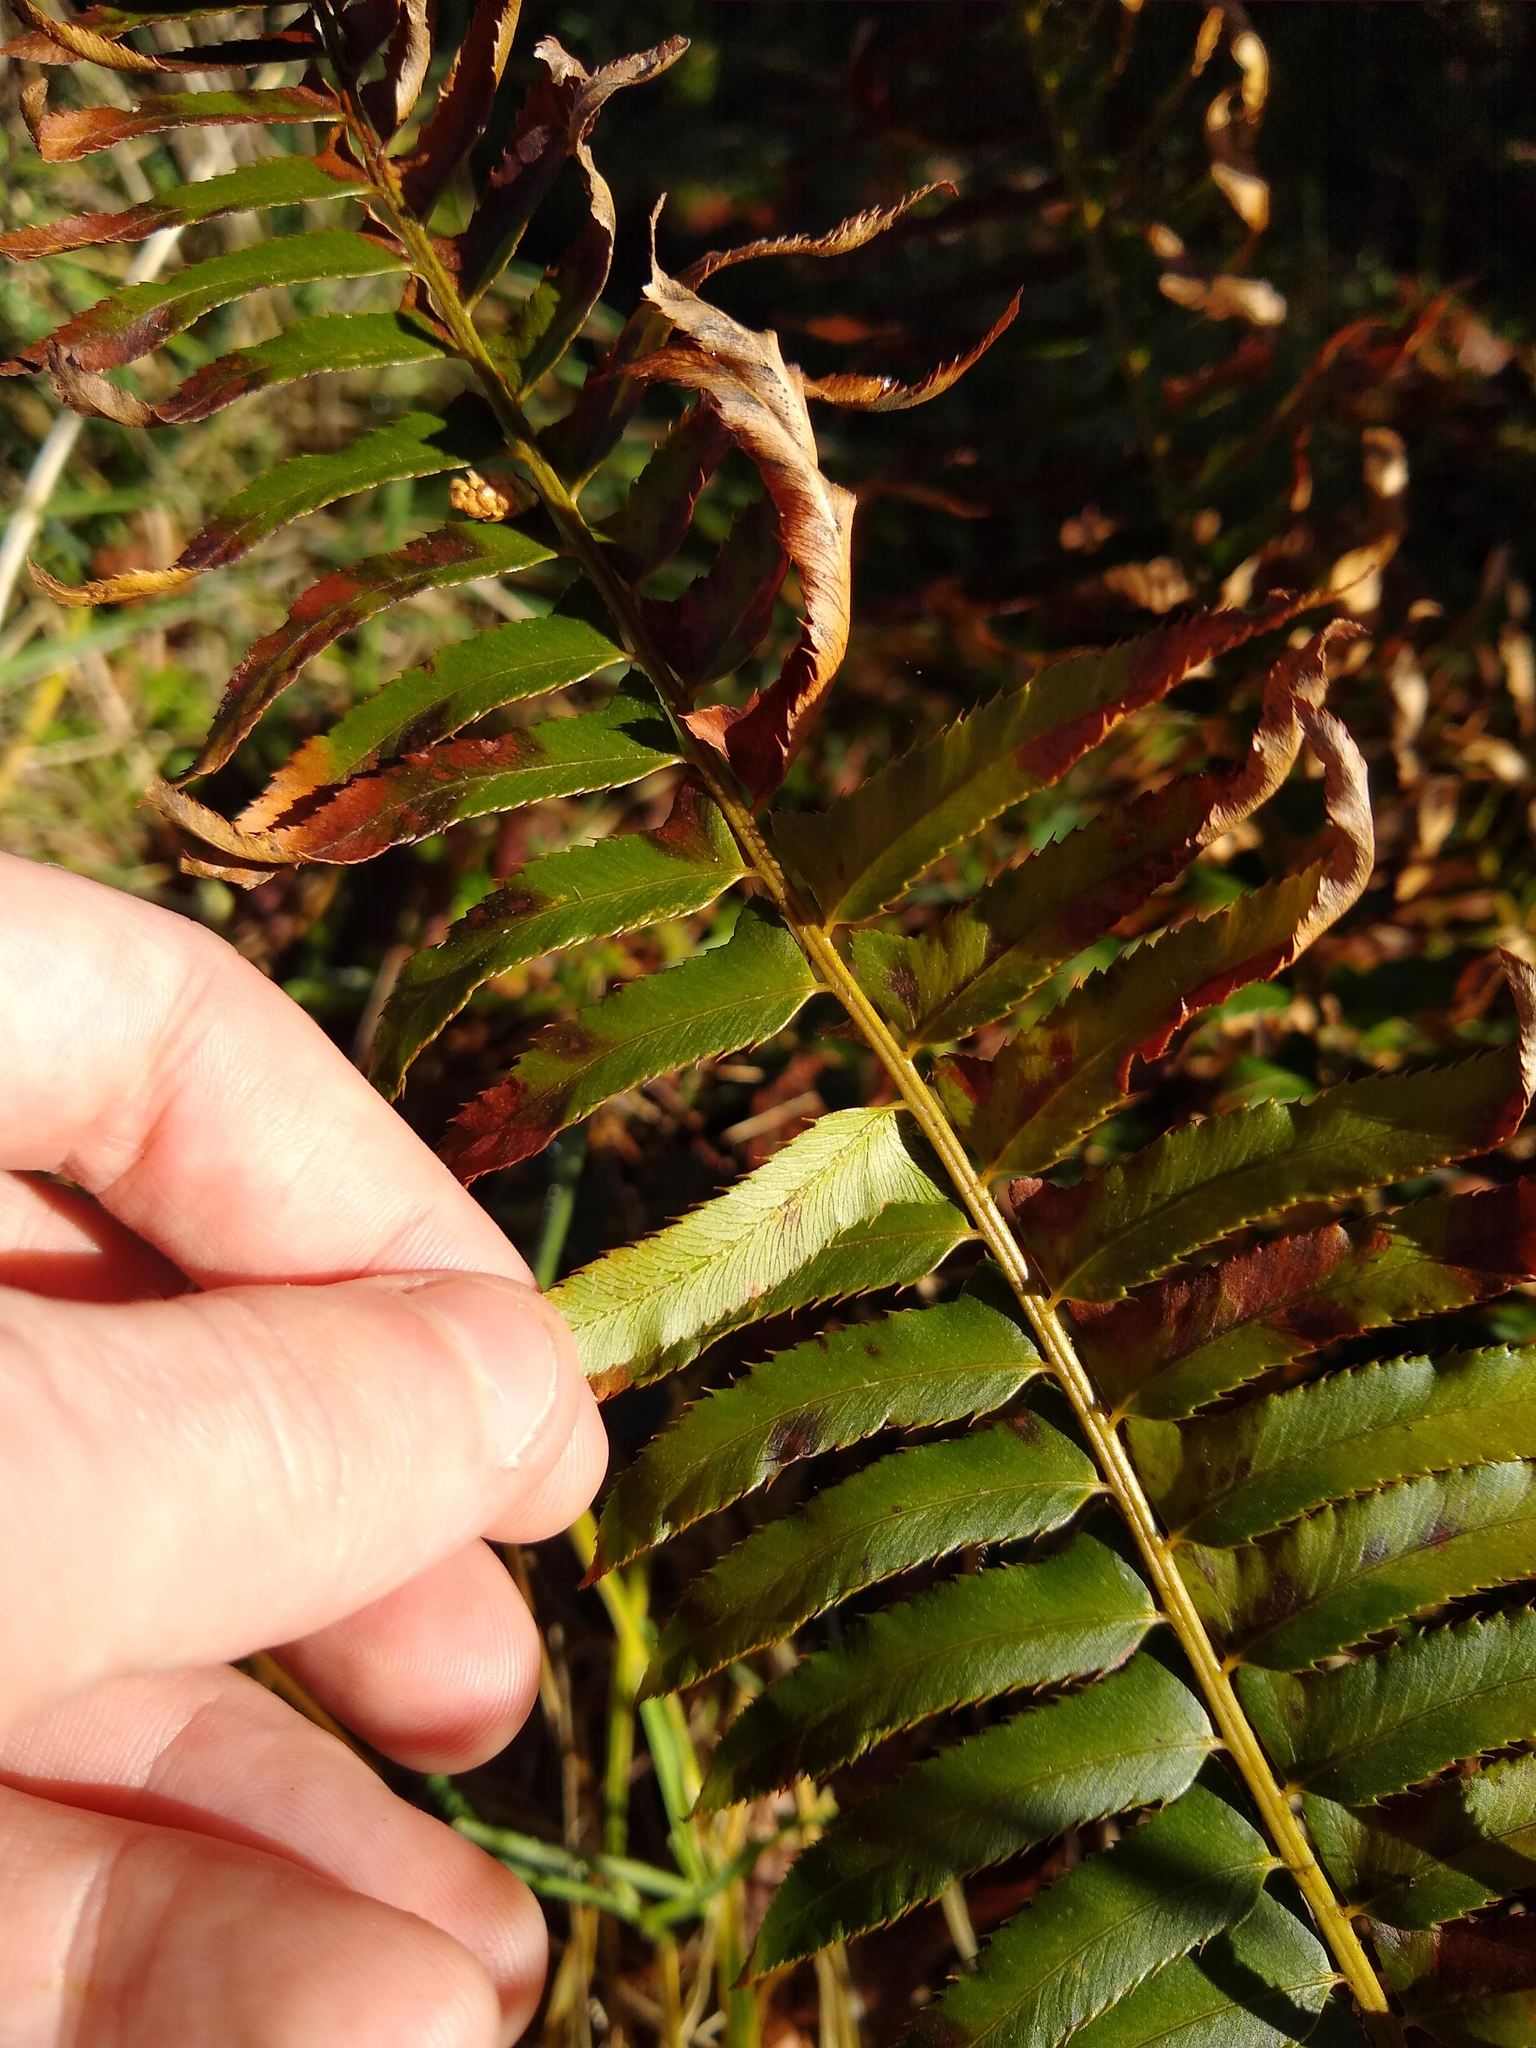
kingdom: Plantae
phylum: Tracheophyta
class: Polypodiopsida
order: Polypodiales
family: Dryopteridaceae
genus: Polystichum
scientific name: Polystichum munitum
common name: Western sword-fern
